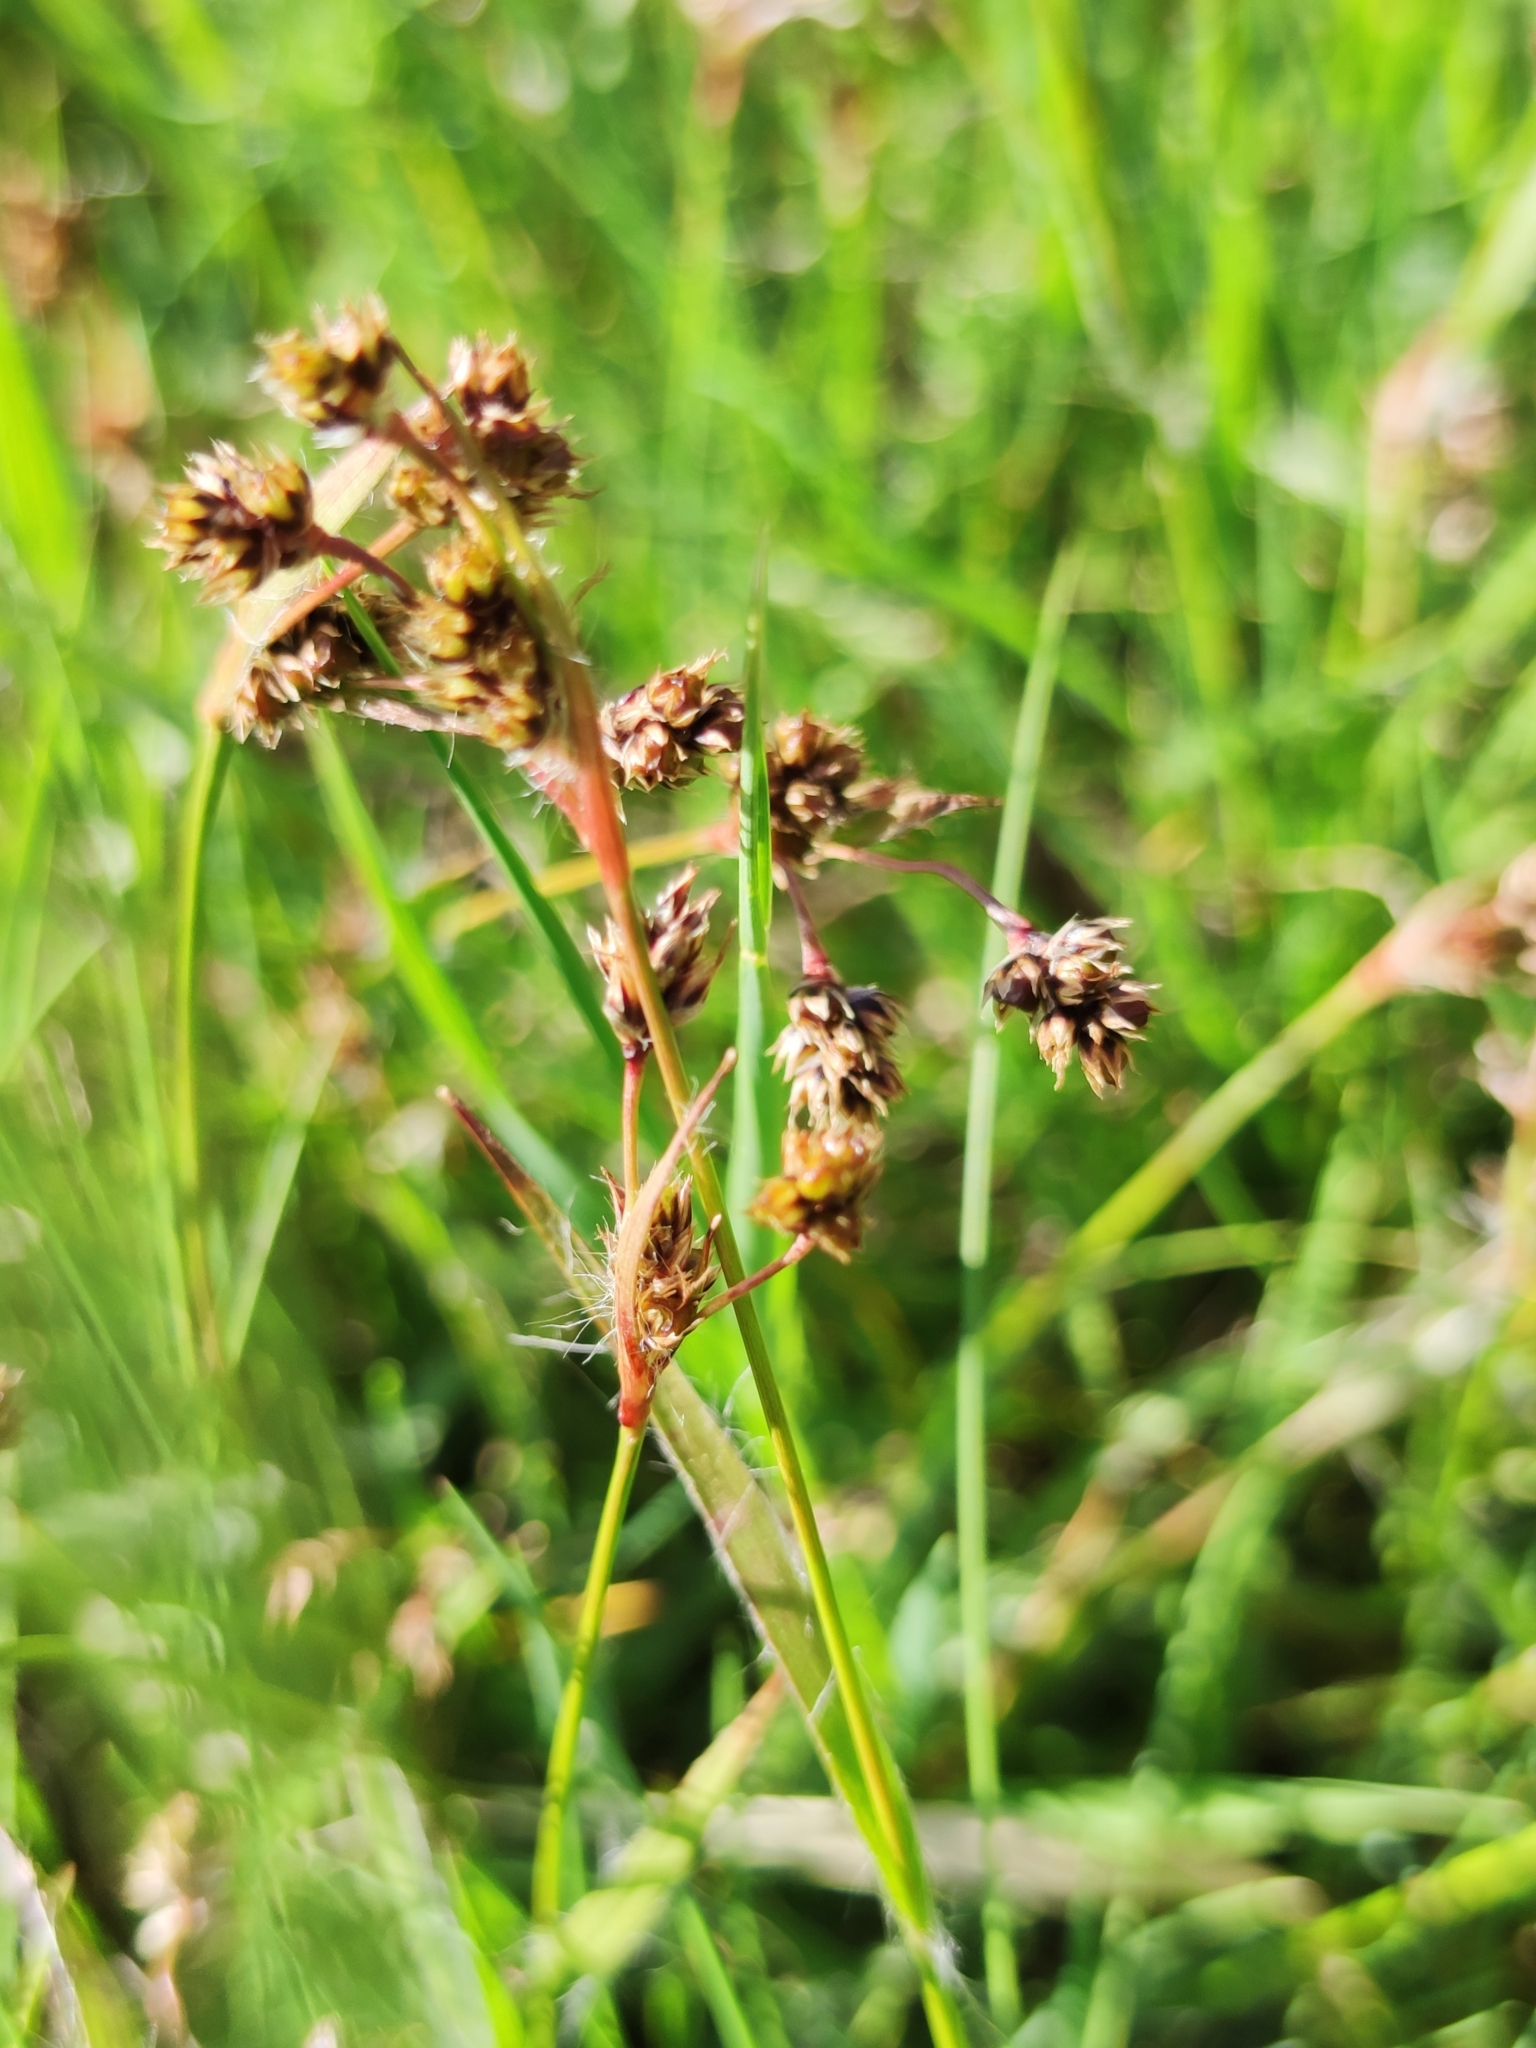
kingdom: Plantae
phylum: Tracheophyta
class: Liliopsida
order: Poales
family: Juncaceae
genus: Luzula
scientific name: Luzula campestris
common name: Field wood-rush
